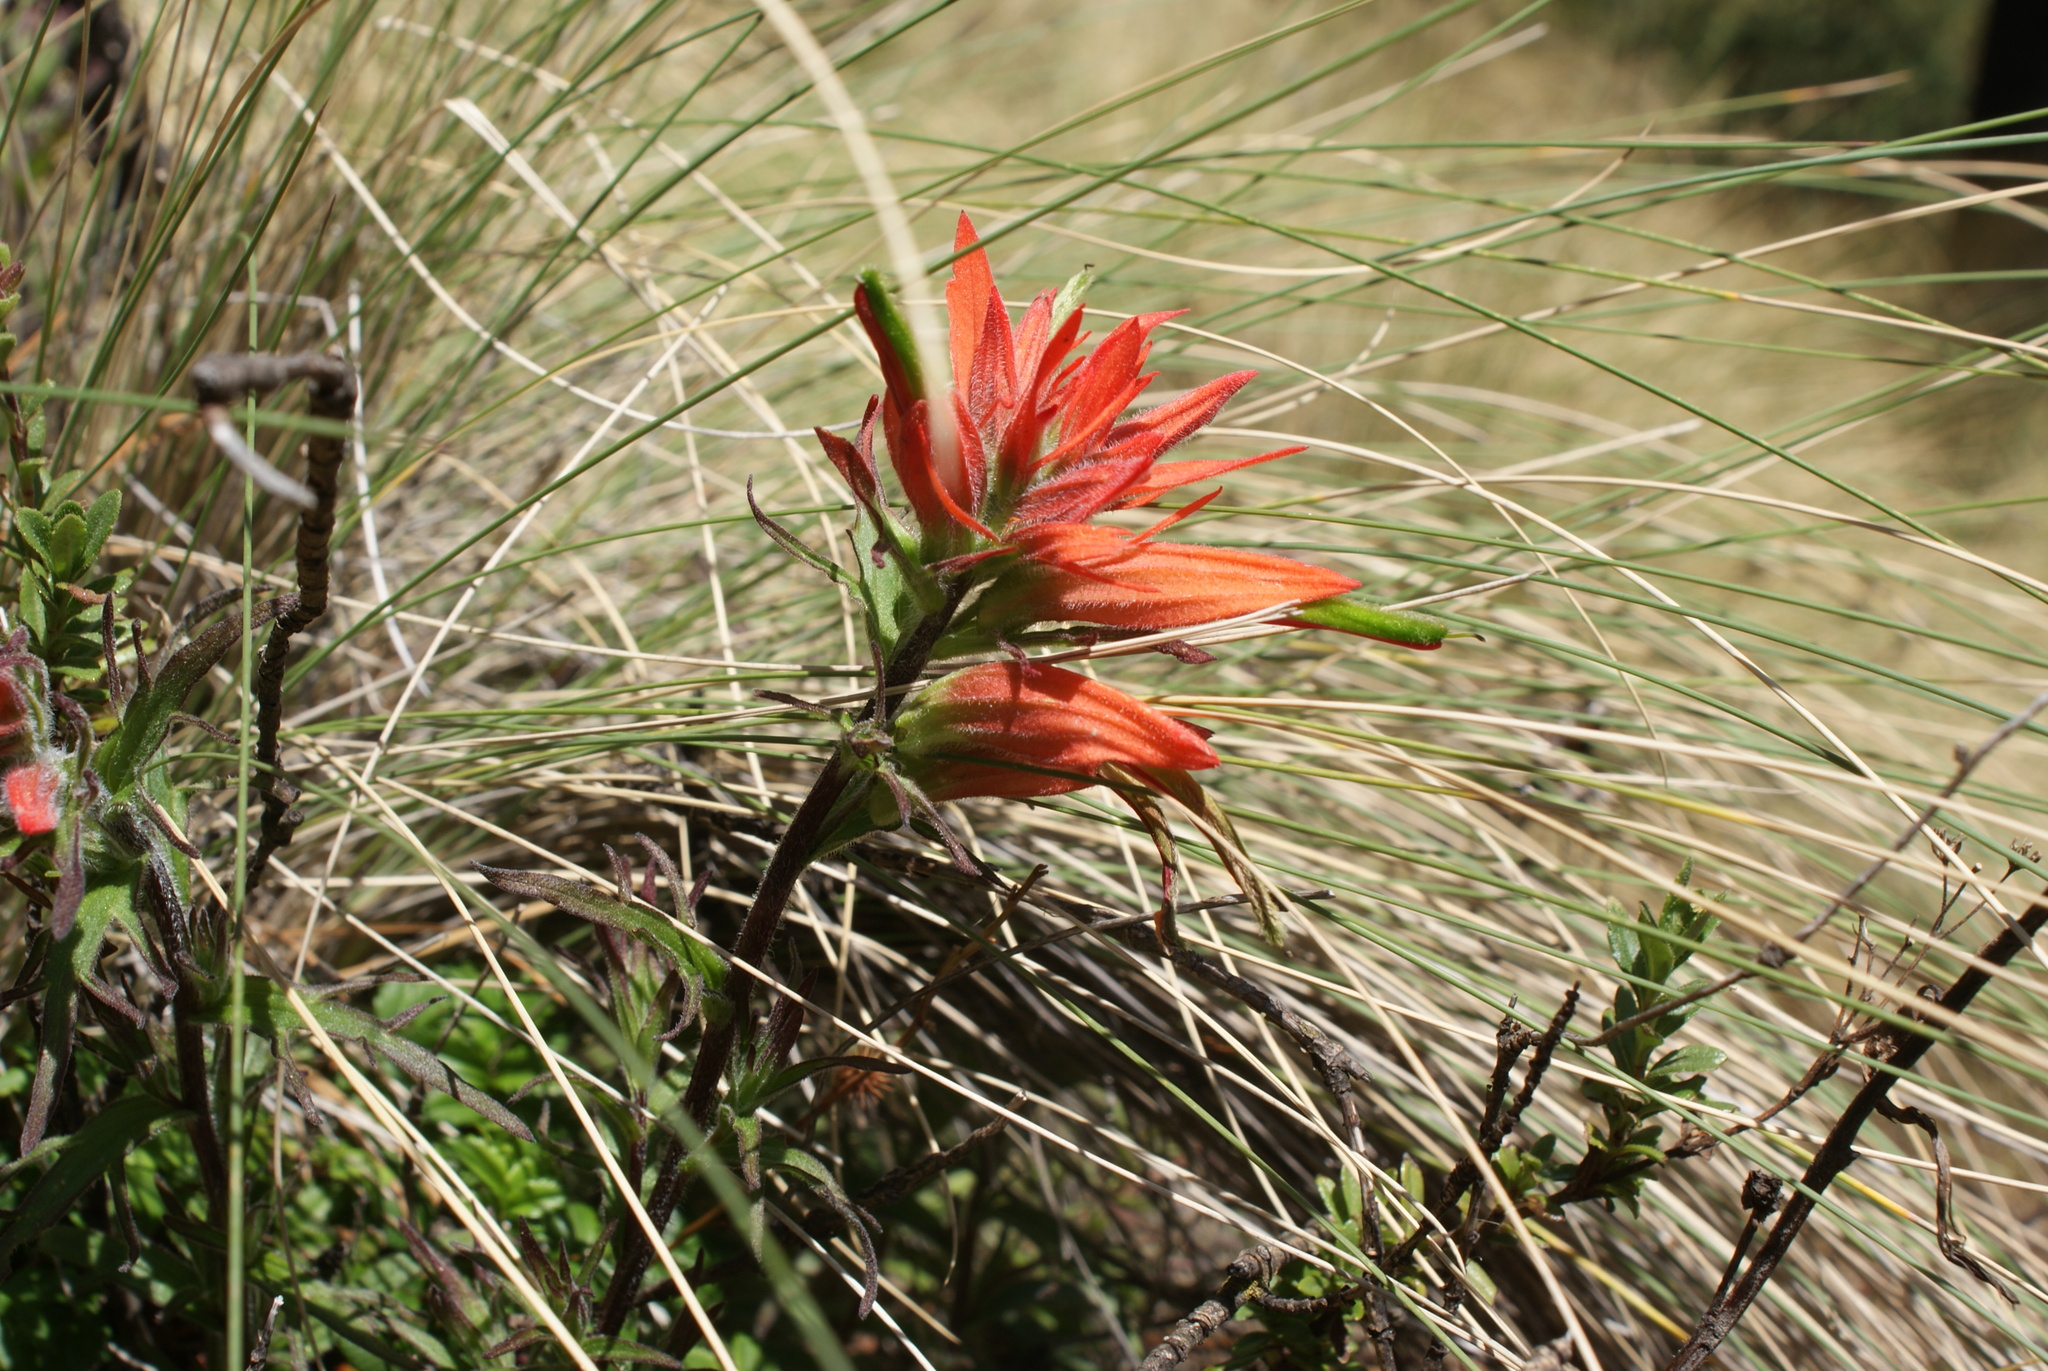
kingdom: Plantae
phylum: Tracheophyta
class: Magnoliopsida
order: Lamiales
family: Orobanchaceae
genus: Castilleja
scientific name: Castilleja pectinata
